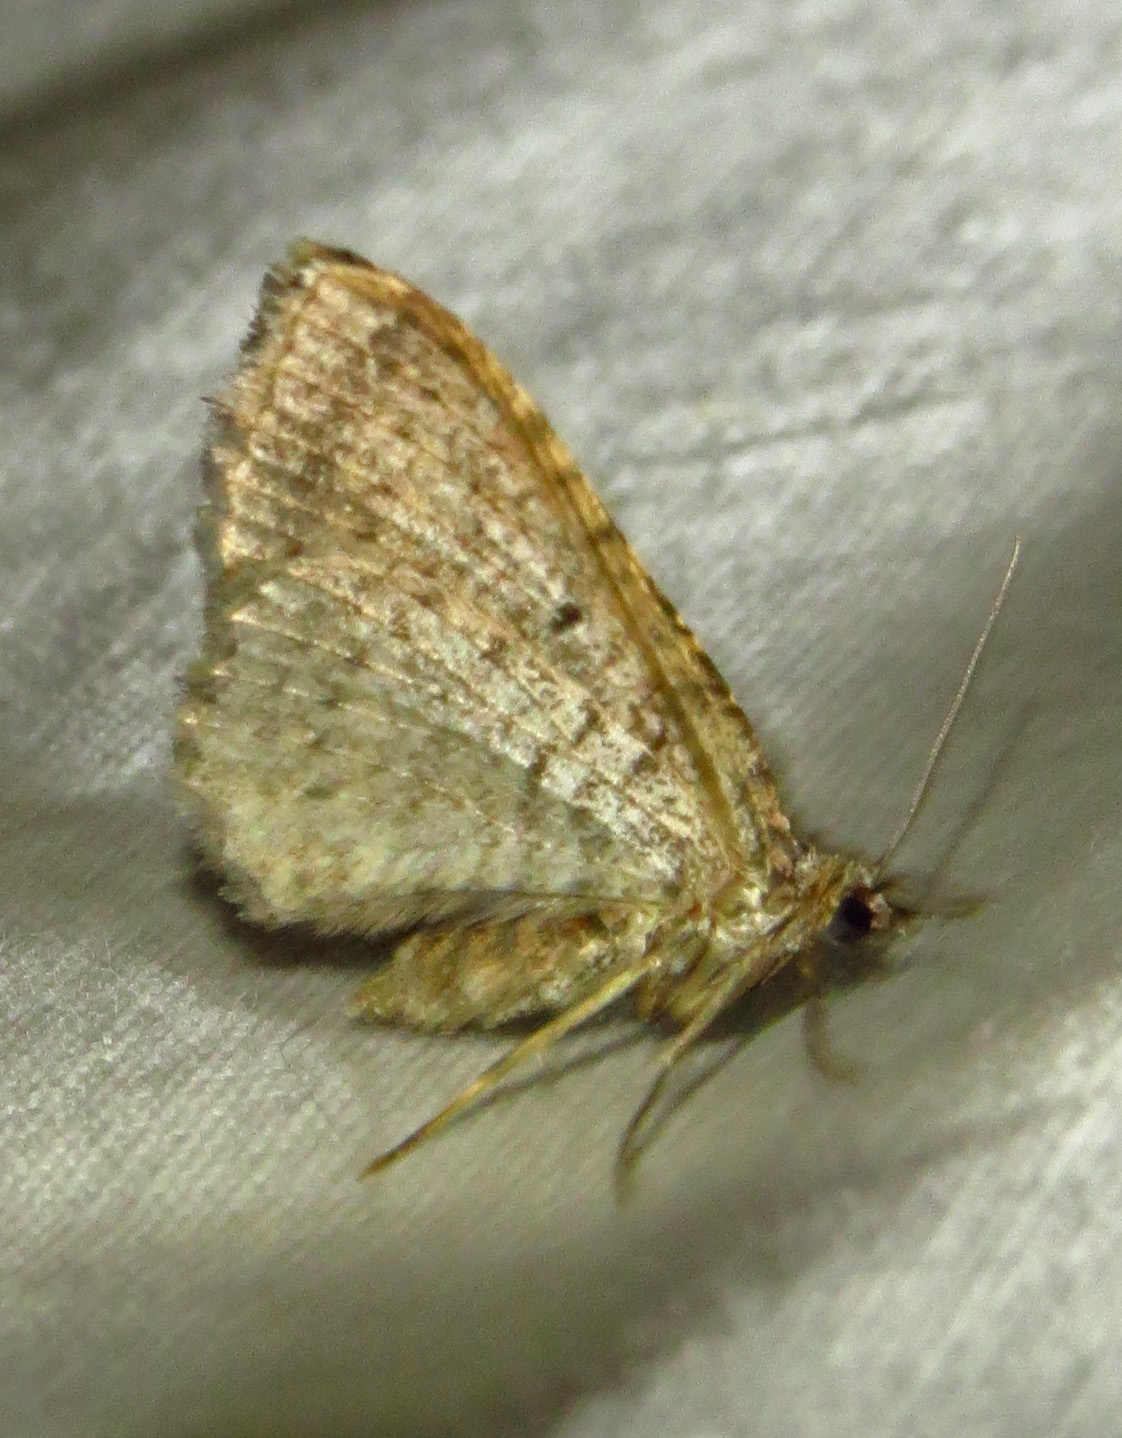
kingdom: Animalia
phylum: Arthropoda
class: Insecta
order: Lepidoptera
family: Geometridae
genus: Costaconvexa
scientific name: Costaconvexa centrostrigaria
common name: Bent-line carpet
